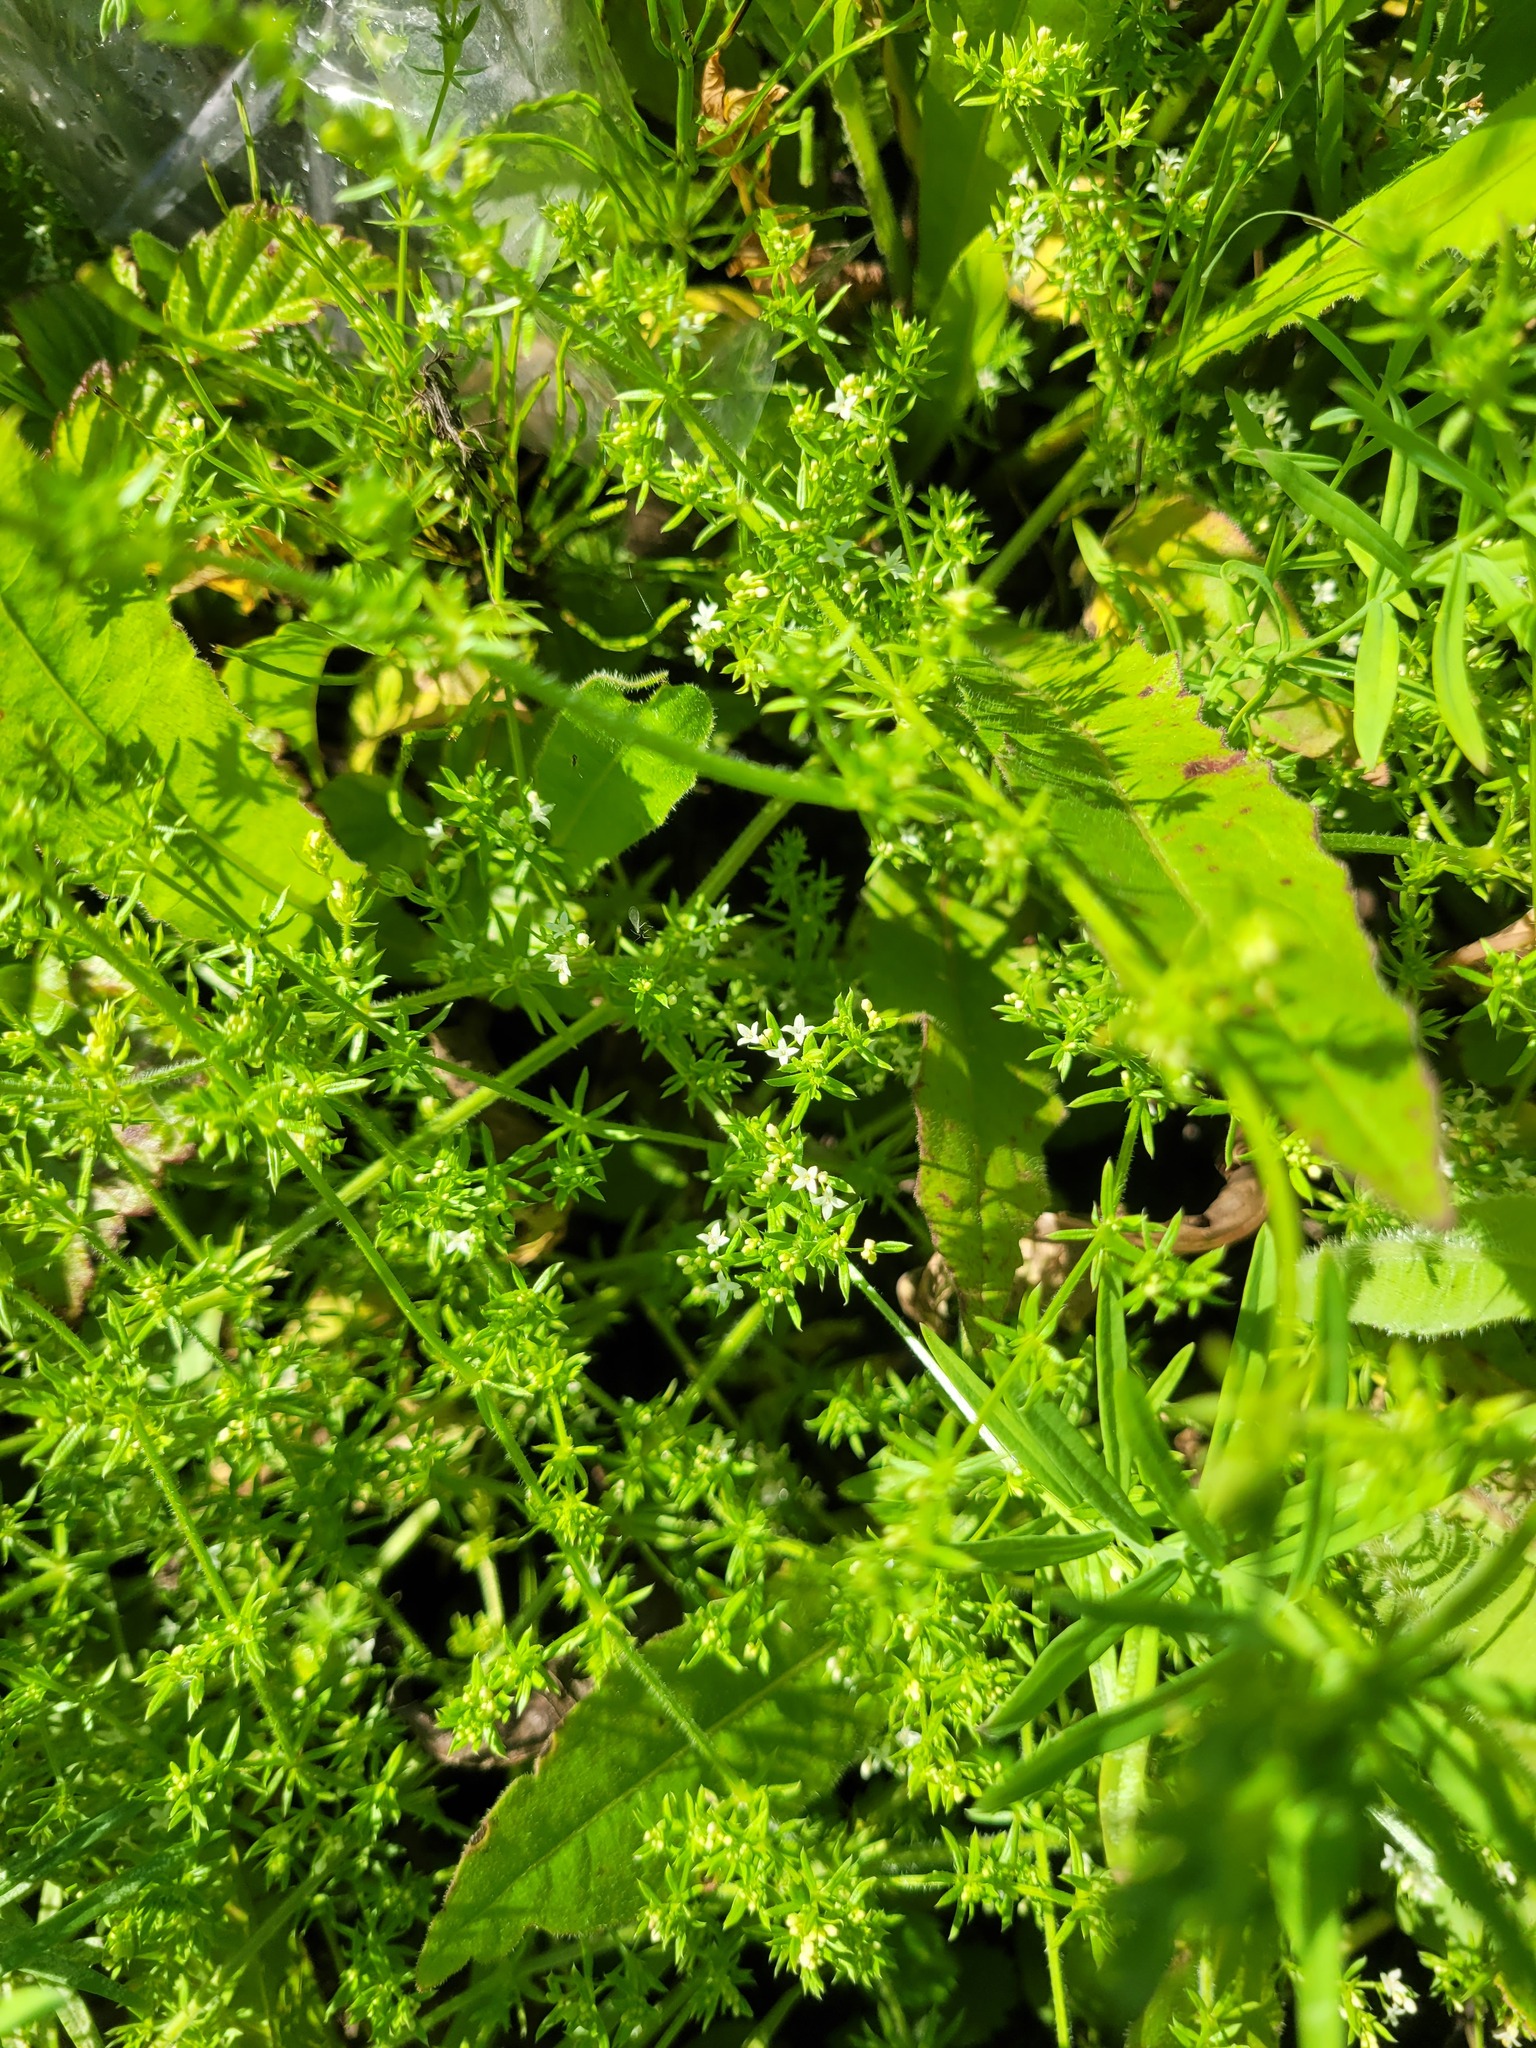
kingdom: Plantae
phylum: Tracheophyta
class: Magnoliopsida
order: Gentianales
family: Rubiaceae
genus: Galium
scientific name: Galium humifusum
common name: Spreading bedstraw
